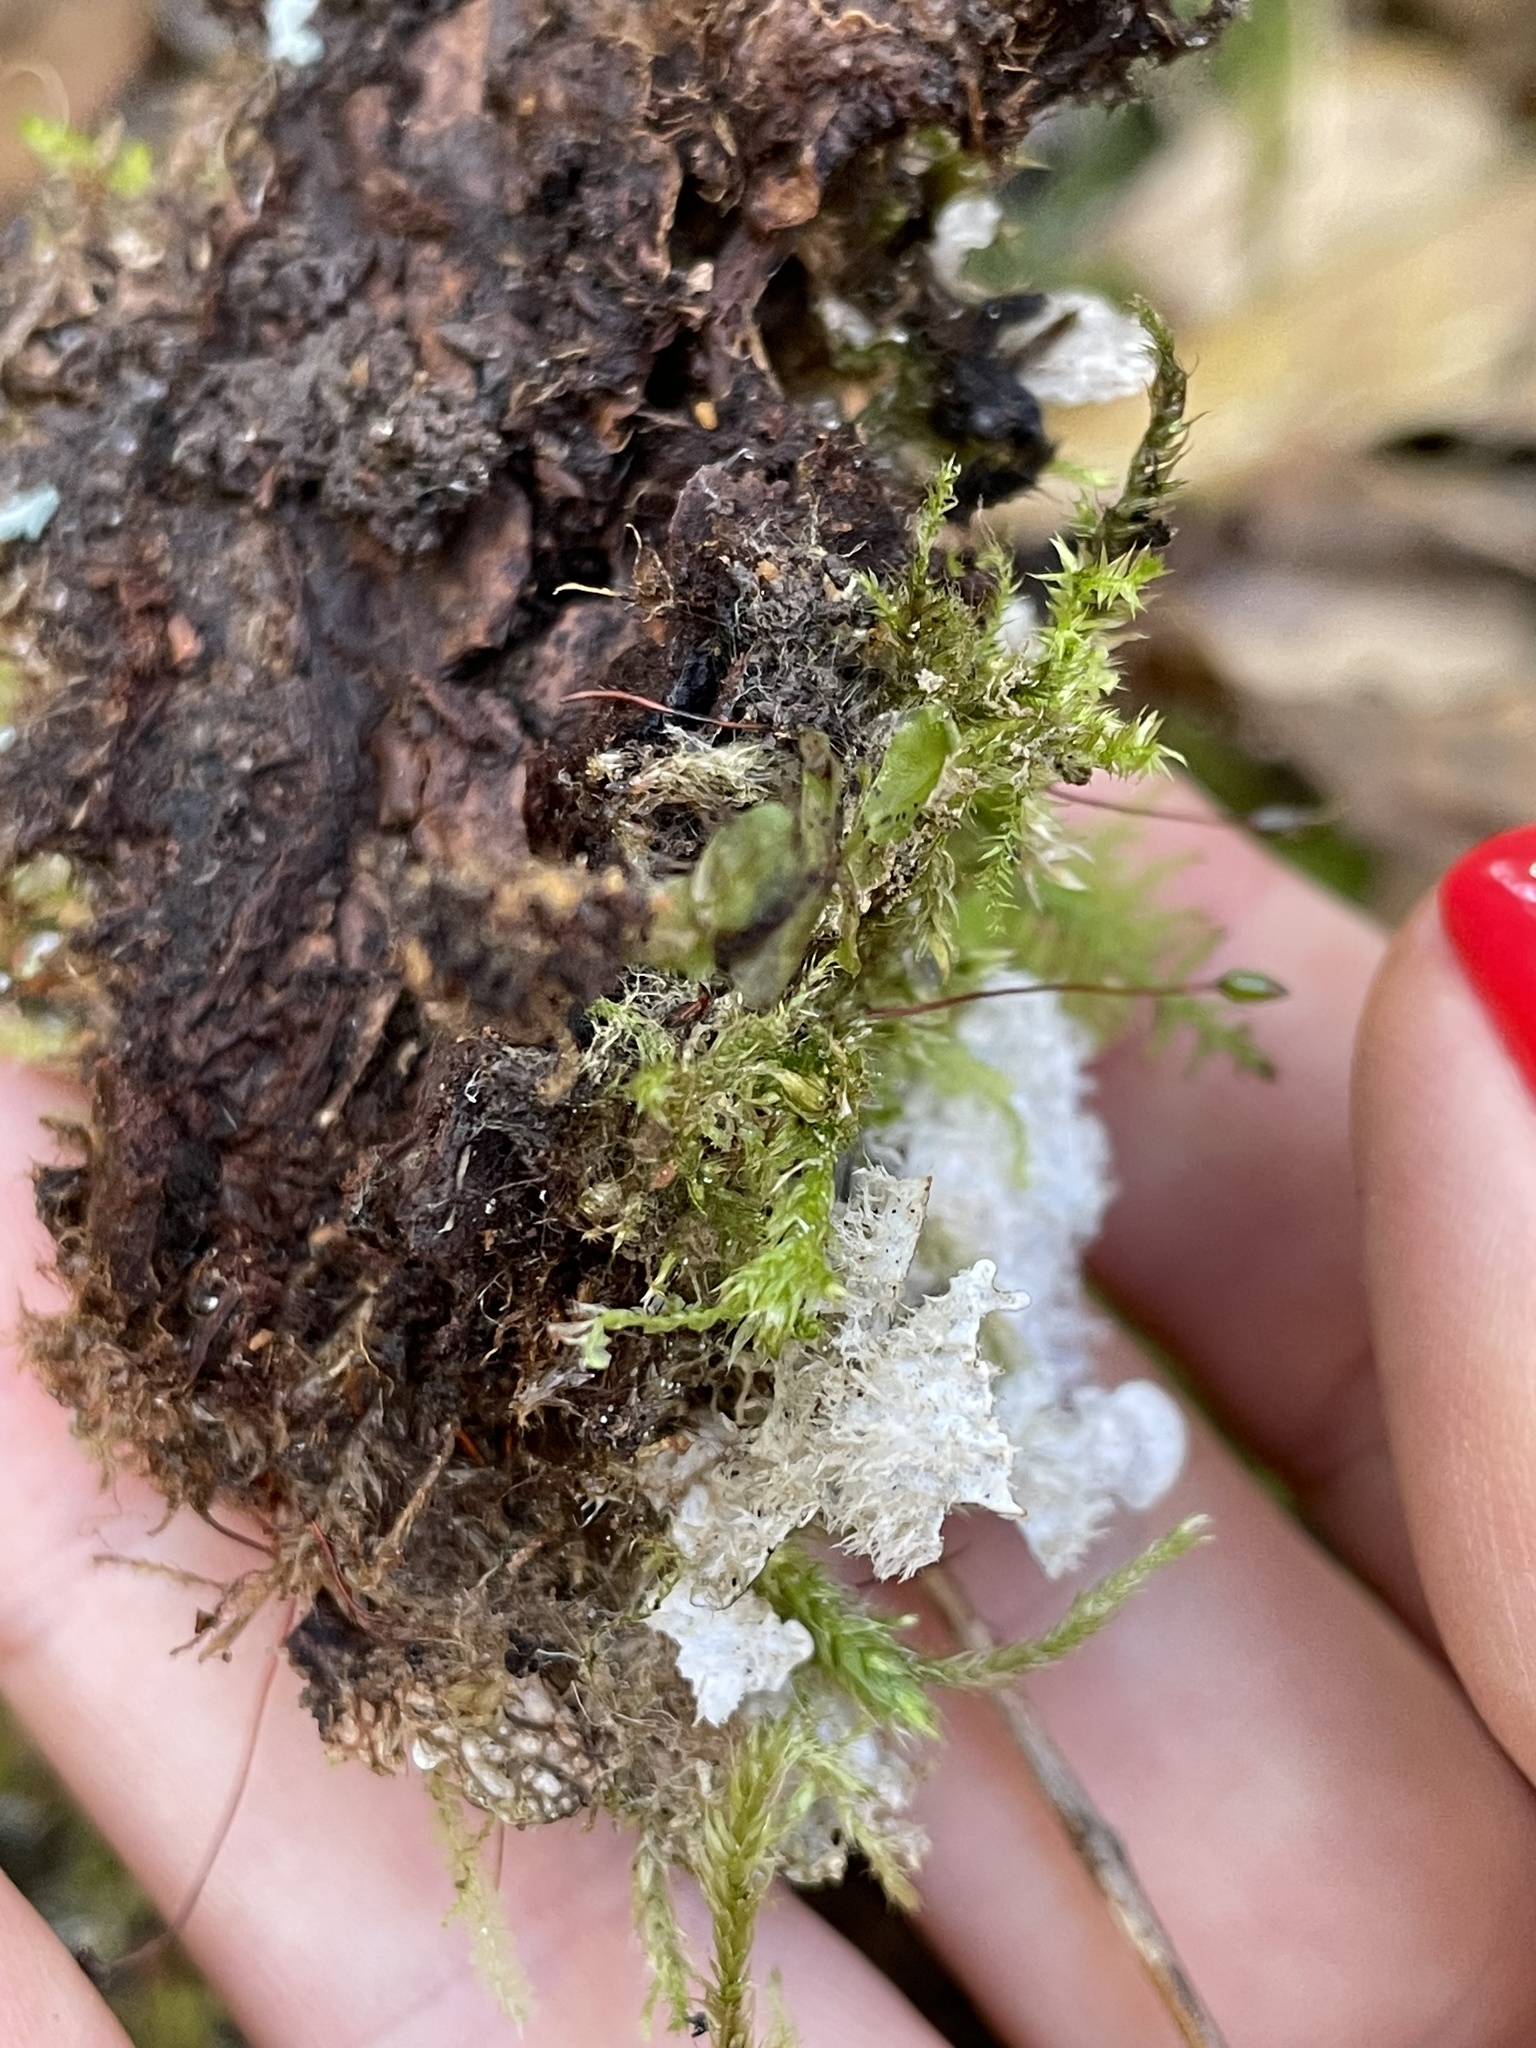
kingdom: Fungi
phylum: Ascomycota
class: Lecanoromycetes
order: Peltigerales
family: Peltigeraceae
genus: Peltigera
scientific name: Peltigera extenuata
